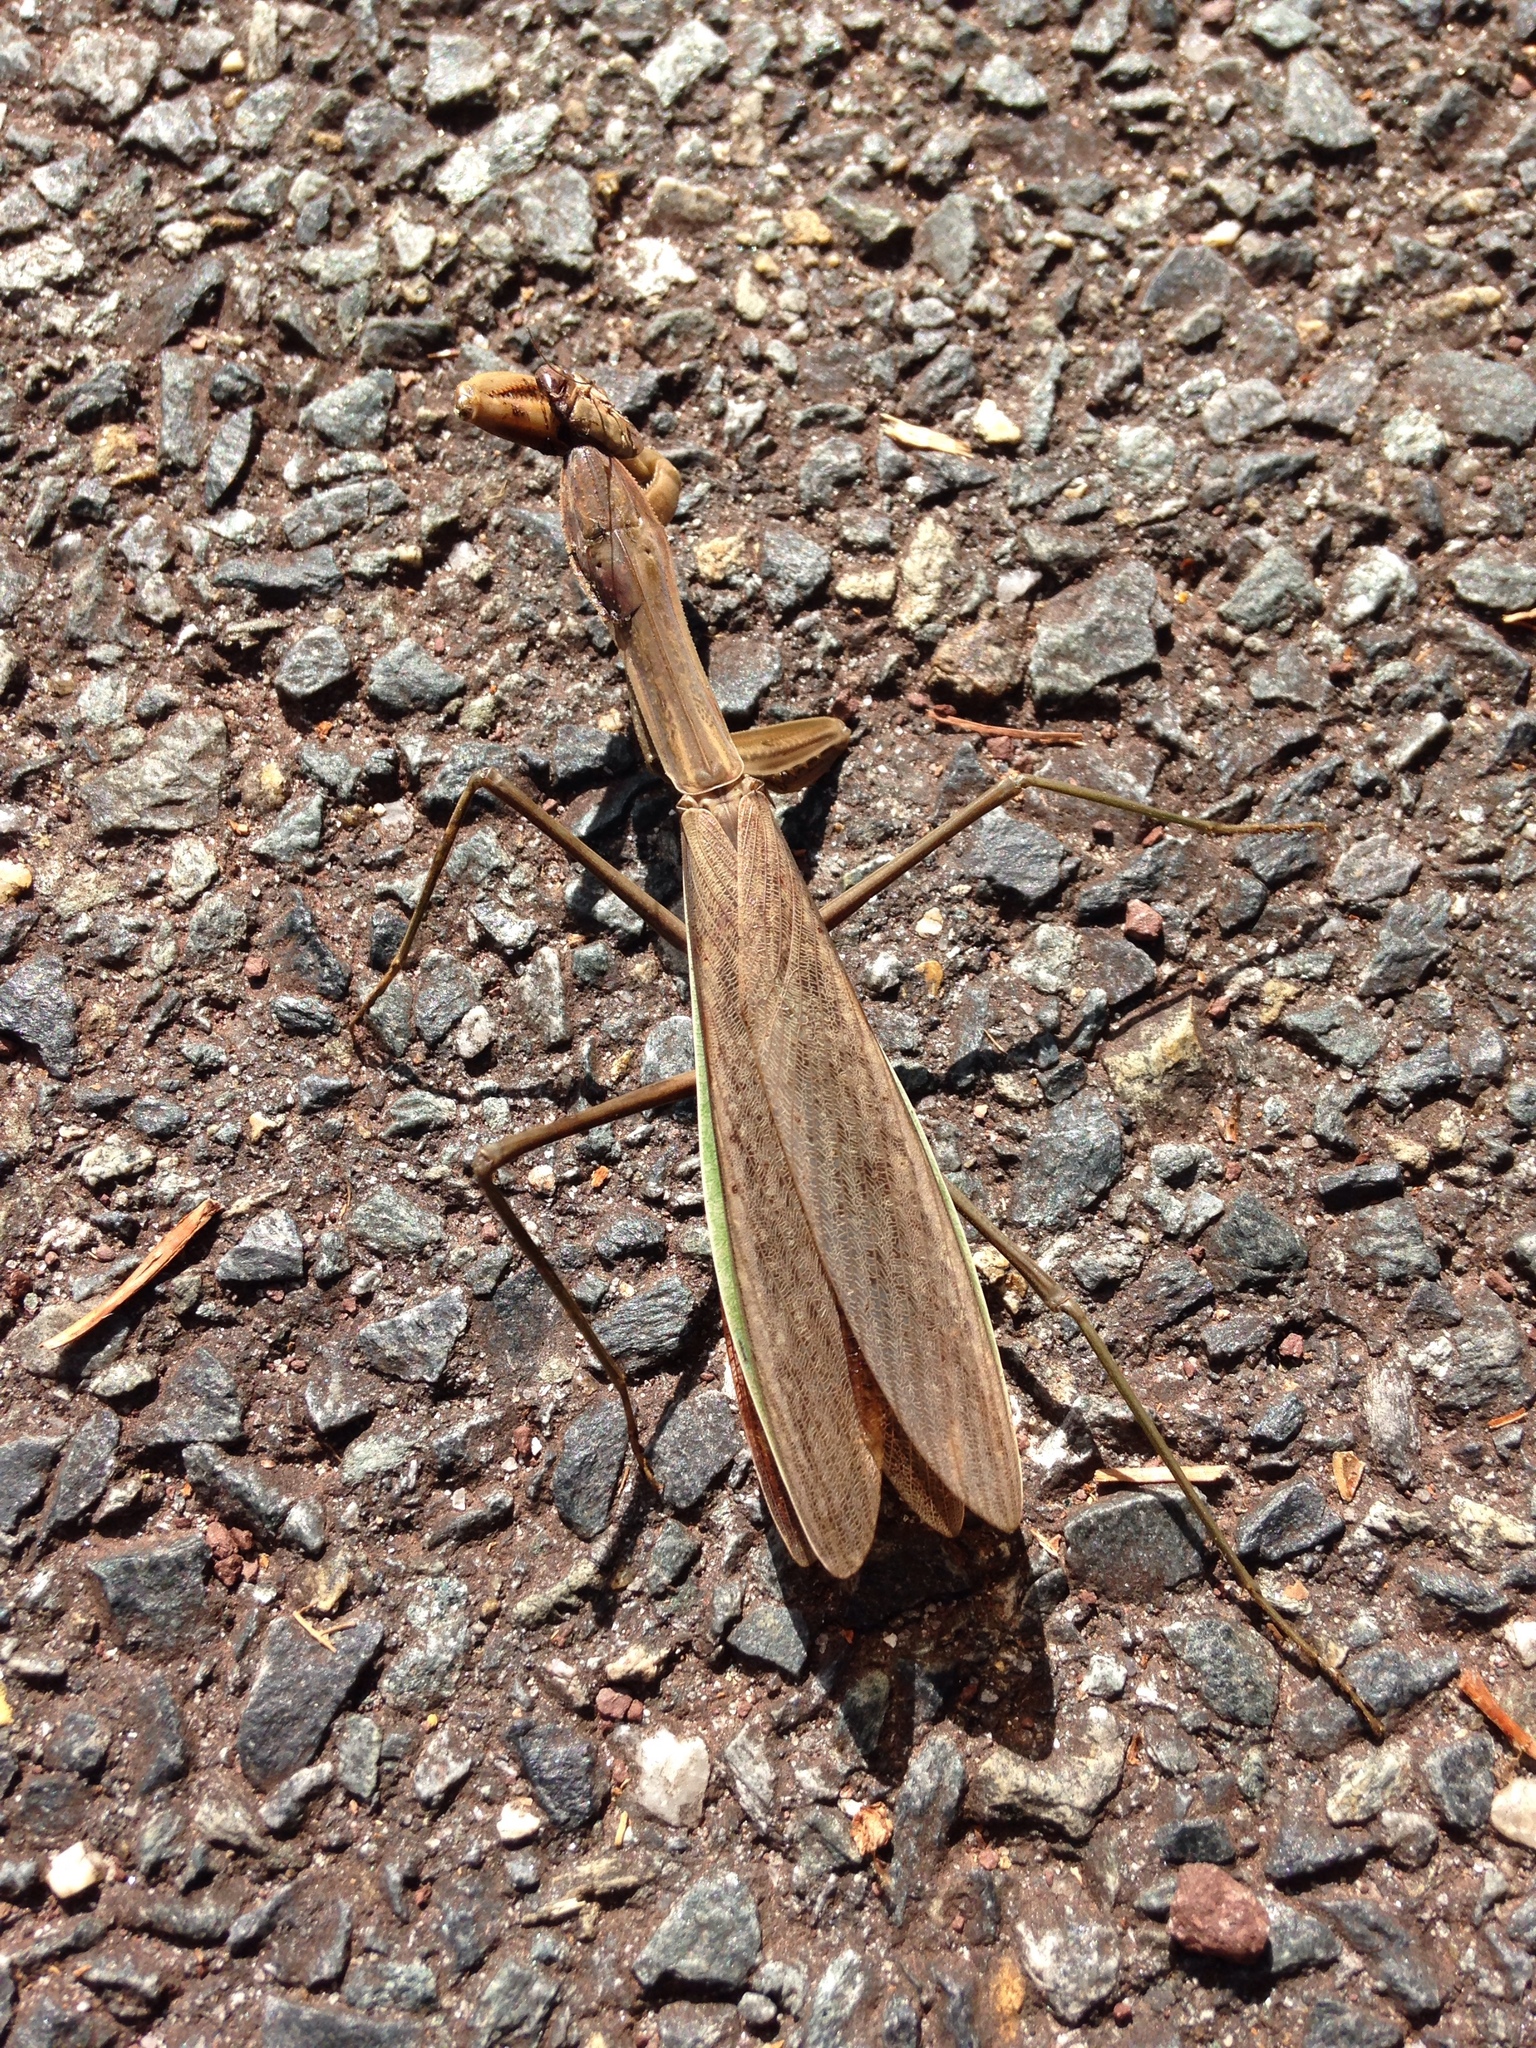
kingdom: Animalia
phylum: Arthropoda
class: Insecta
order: Mantodea
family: Mantidae
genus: Tenodera
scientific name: Tenodera sinensis
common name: Chinese mantis
